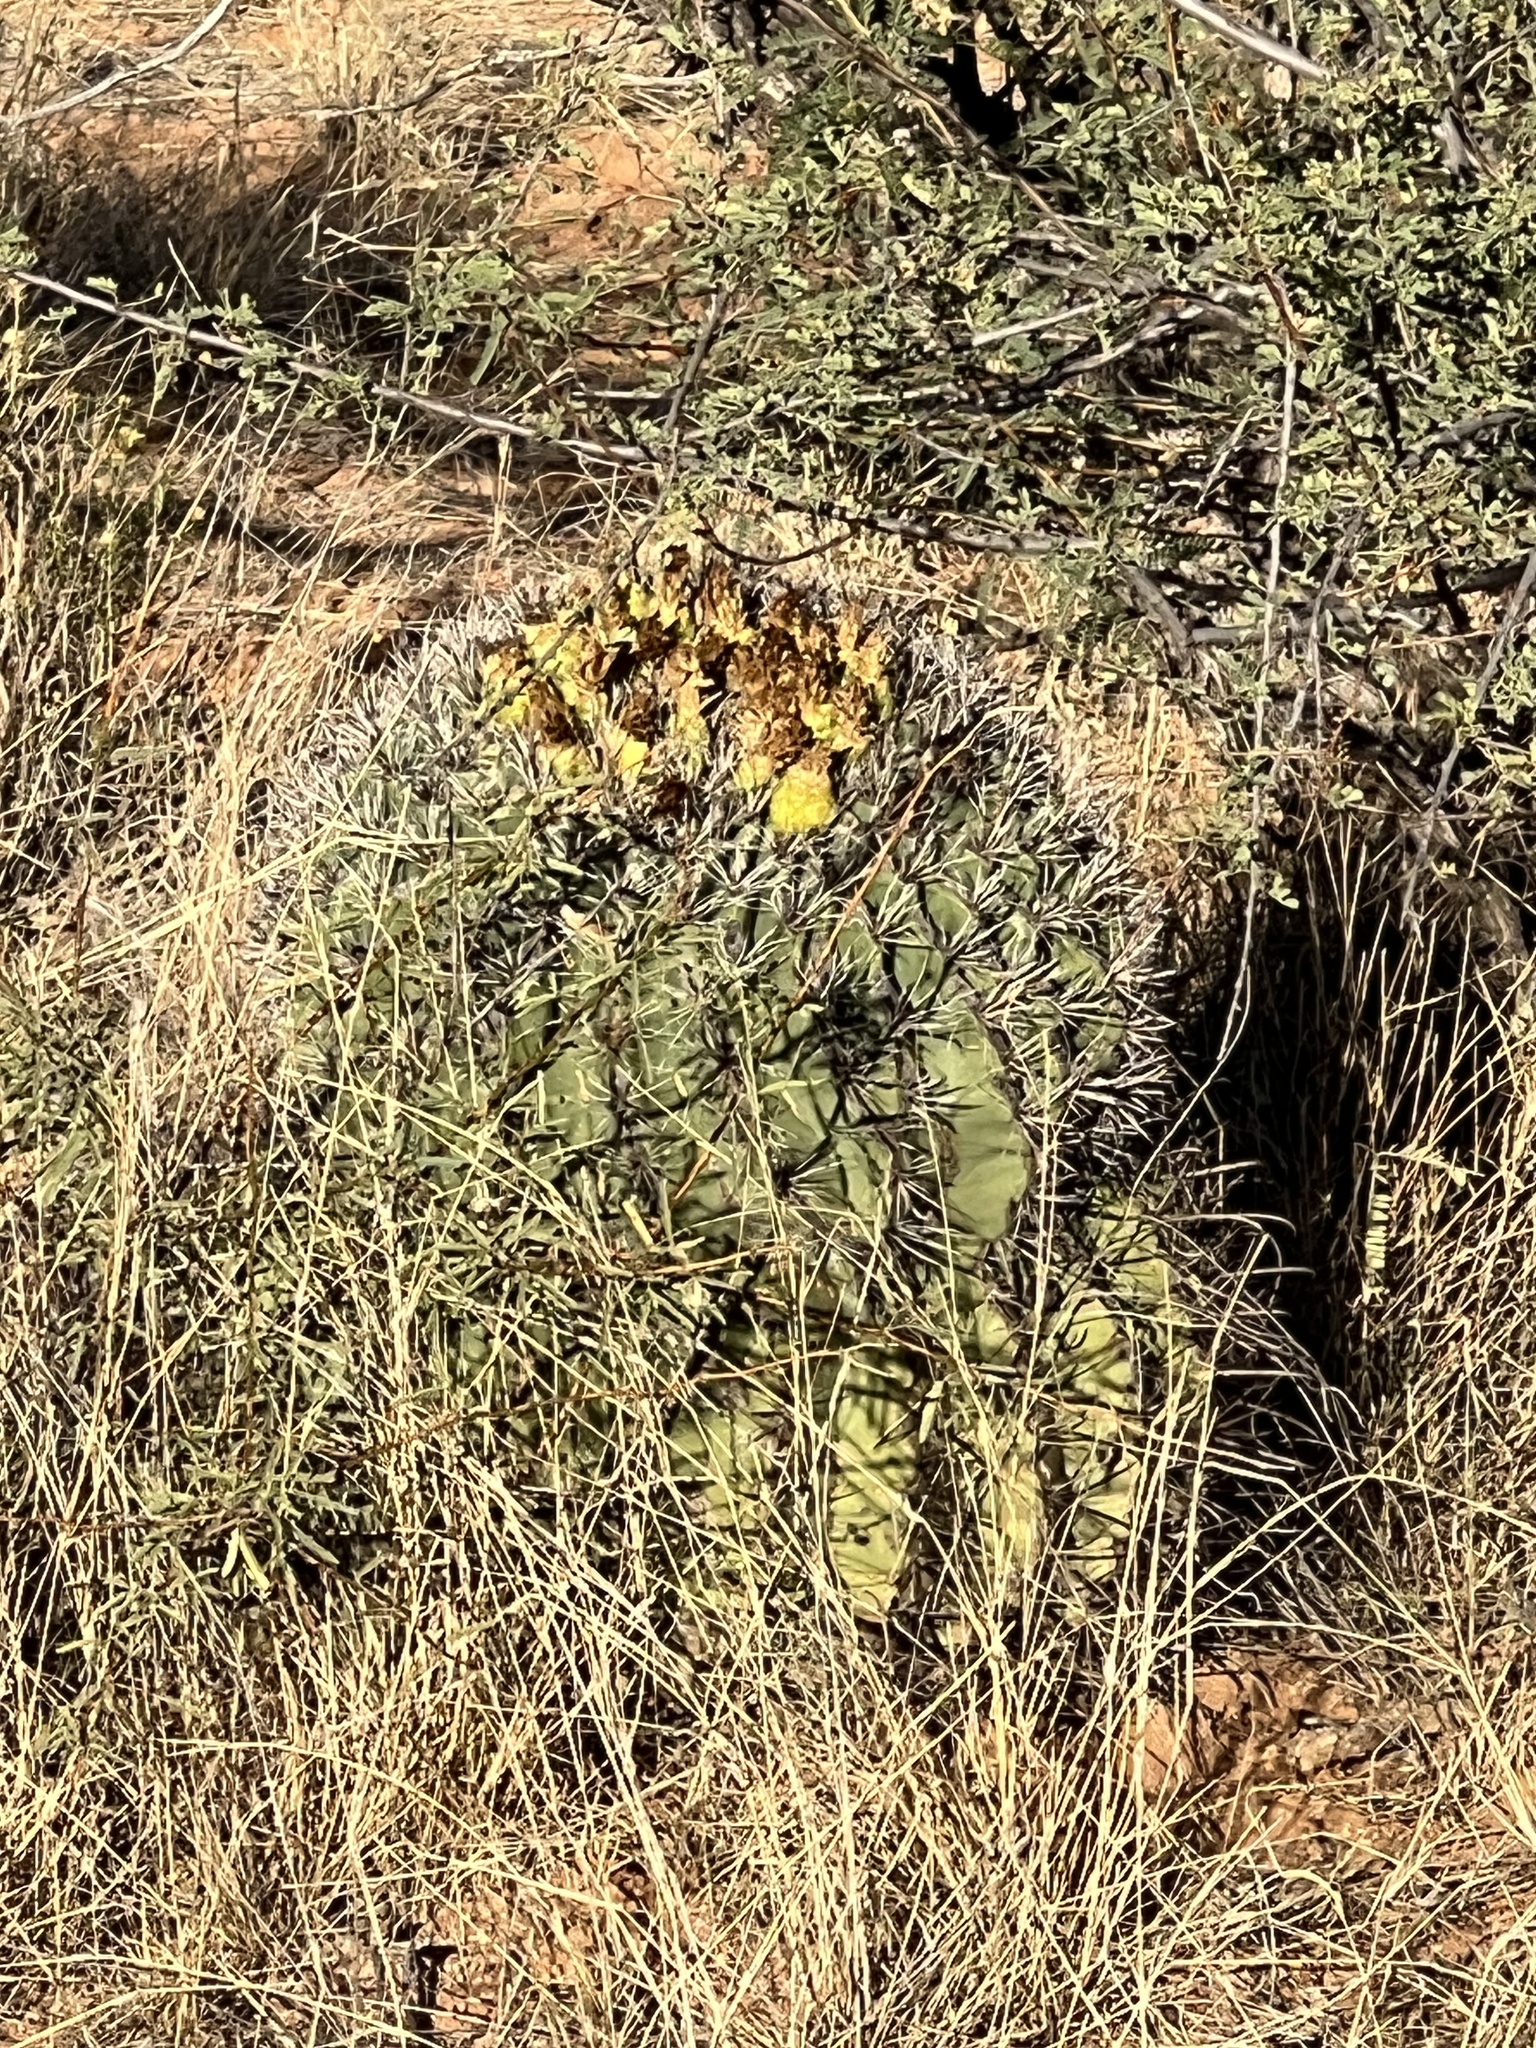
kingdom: Plantae
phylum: Tracheophyta
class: Magnoliopsida
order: Caryophyllales
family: Cactaceae
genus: Ferocactus
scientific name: Ferocactus wislizeni
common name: Candy barrel cactus
